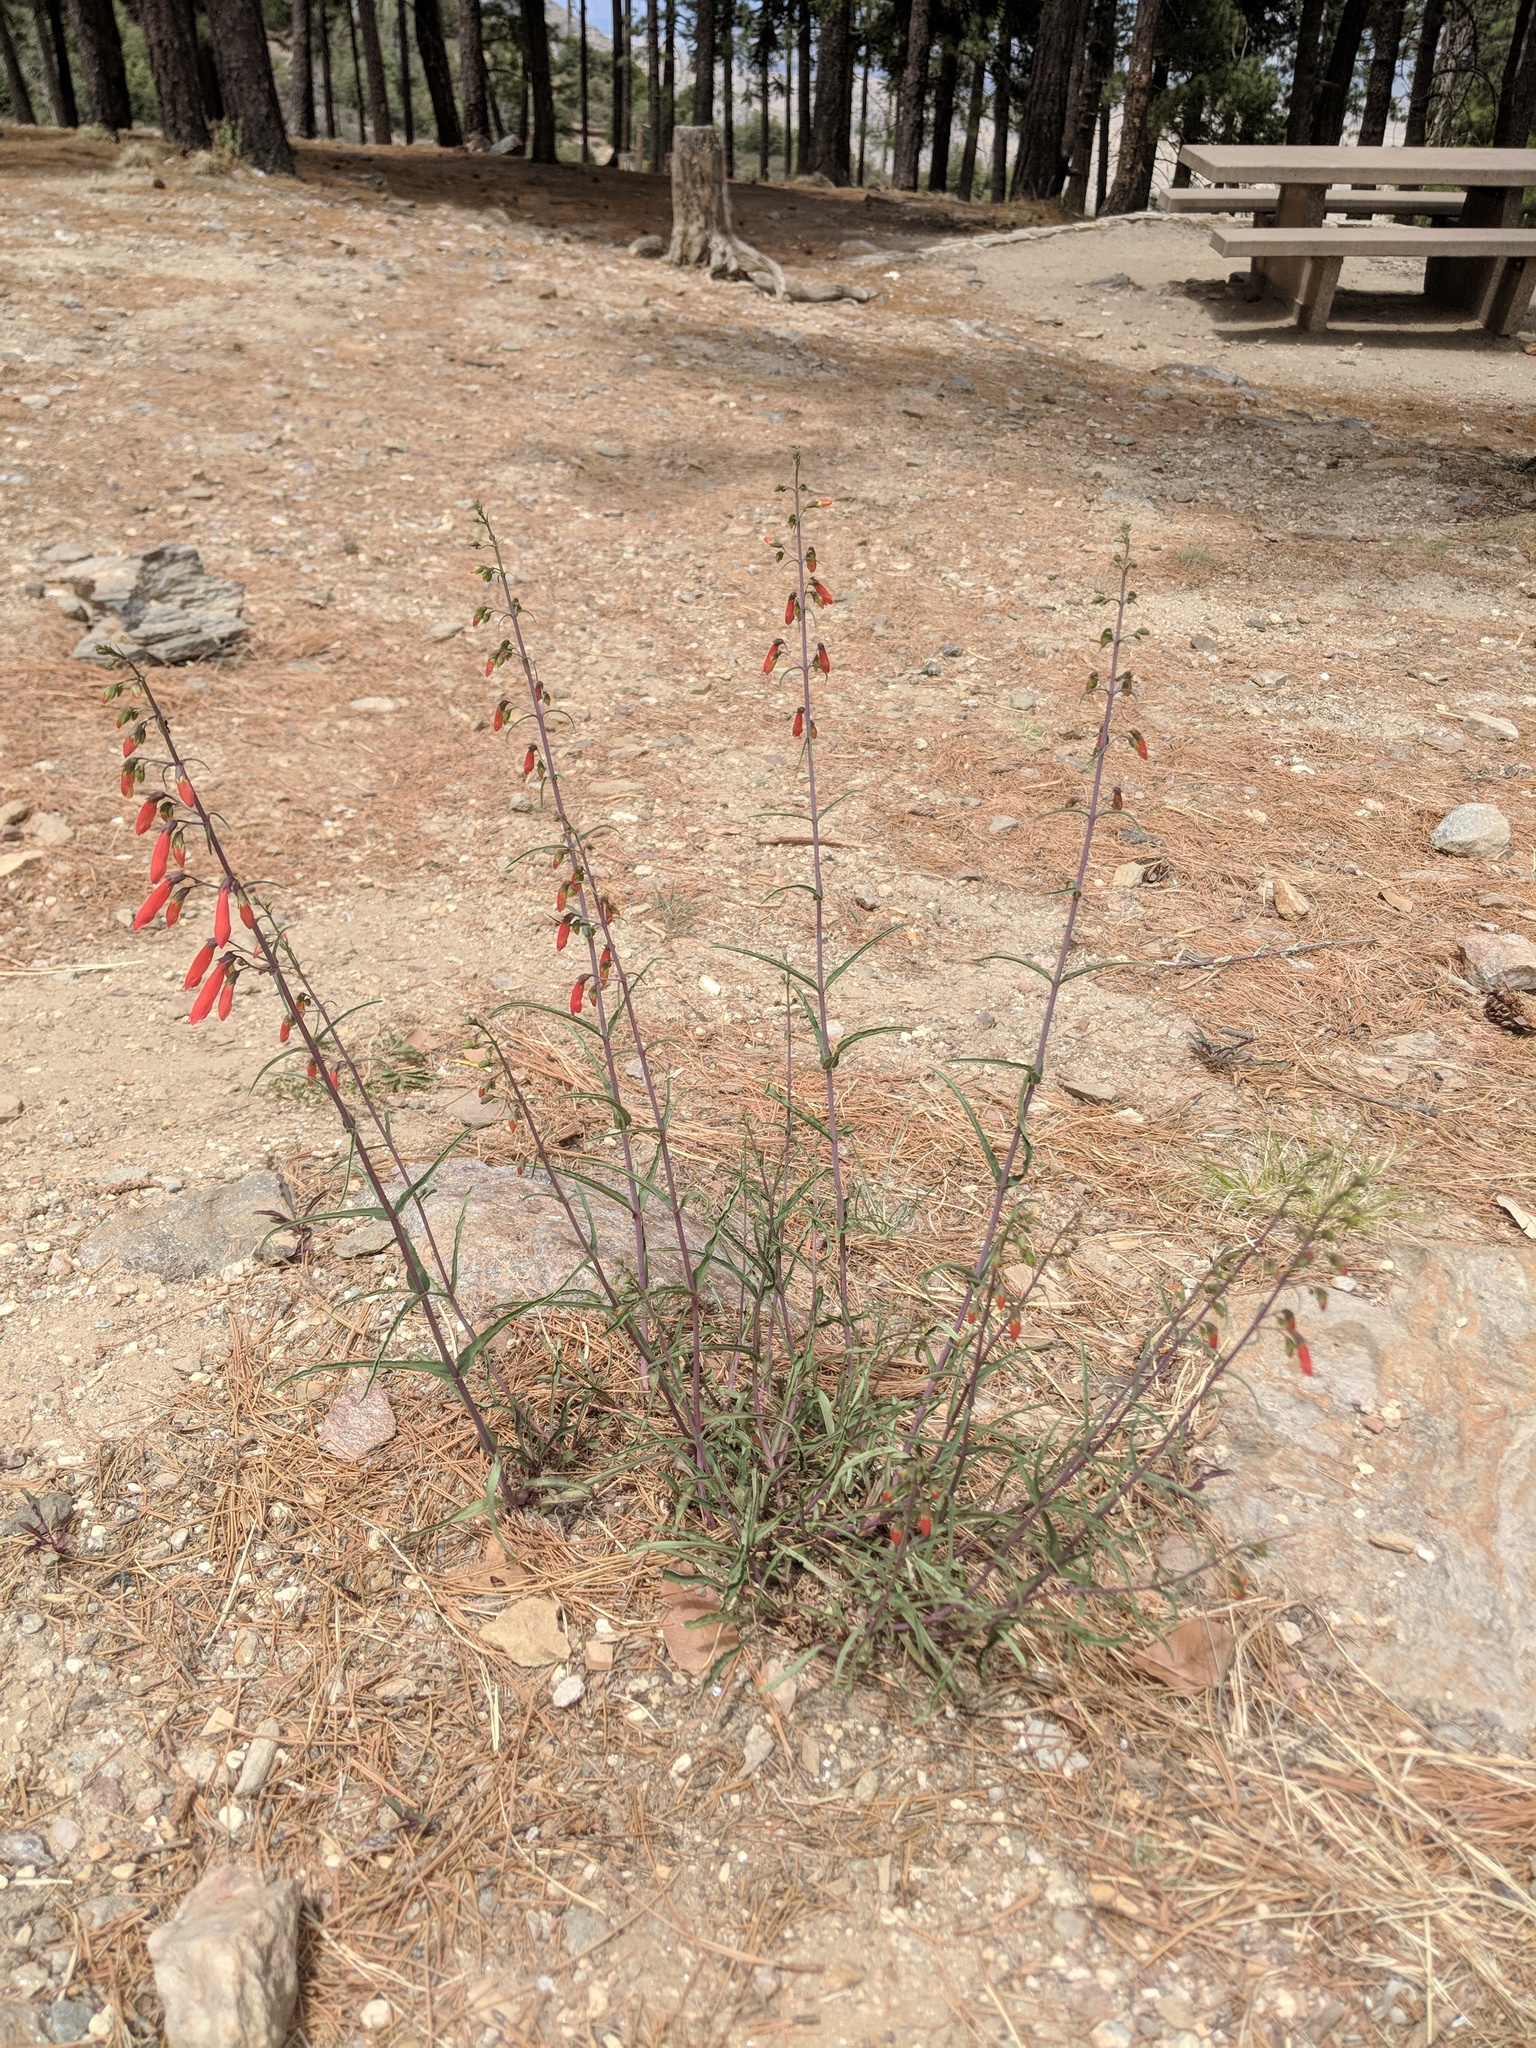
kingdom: Plantae
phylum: Tracheophyta
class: Magnoliopsida
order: Lamiales
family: Plantaginaceae
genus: Penstemon
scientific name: Penstemon barbatus
